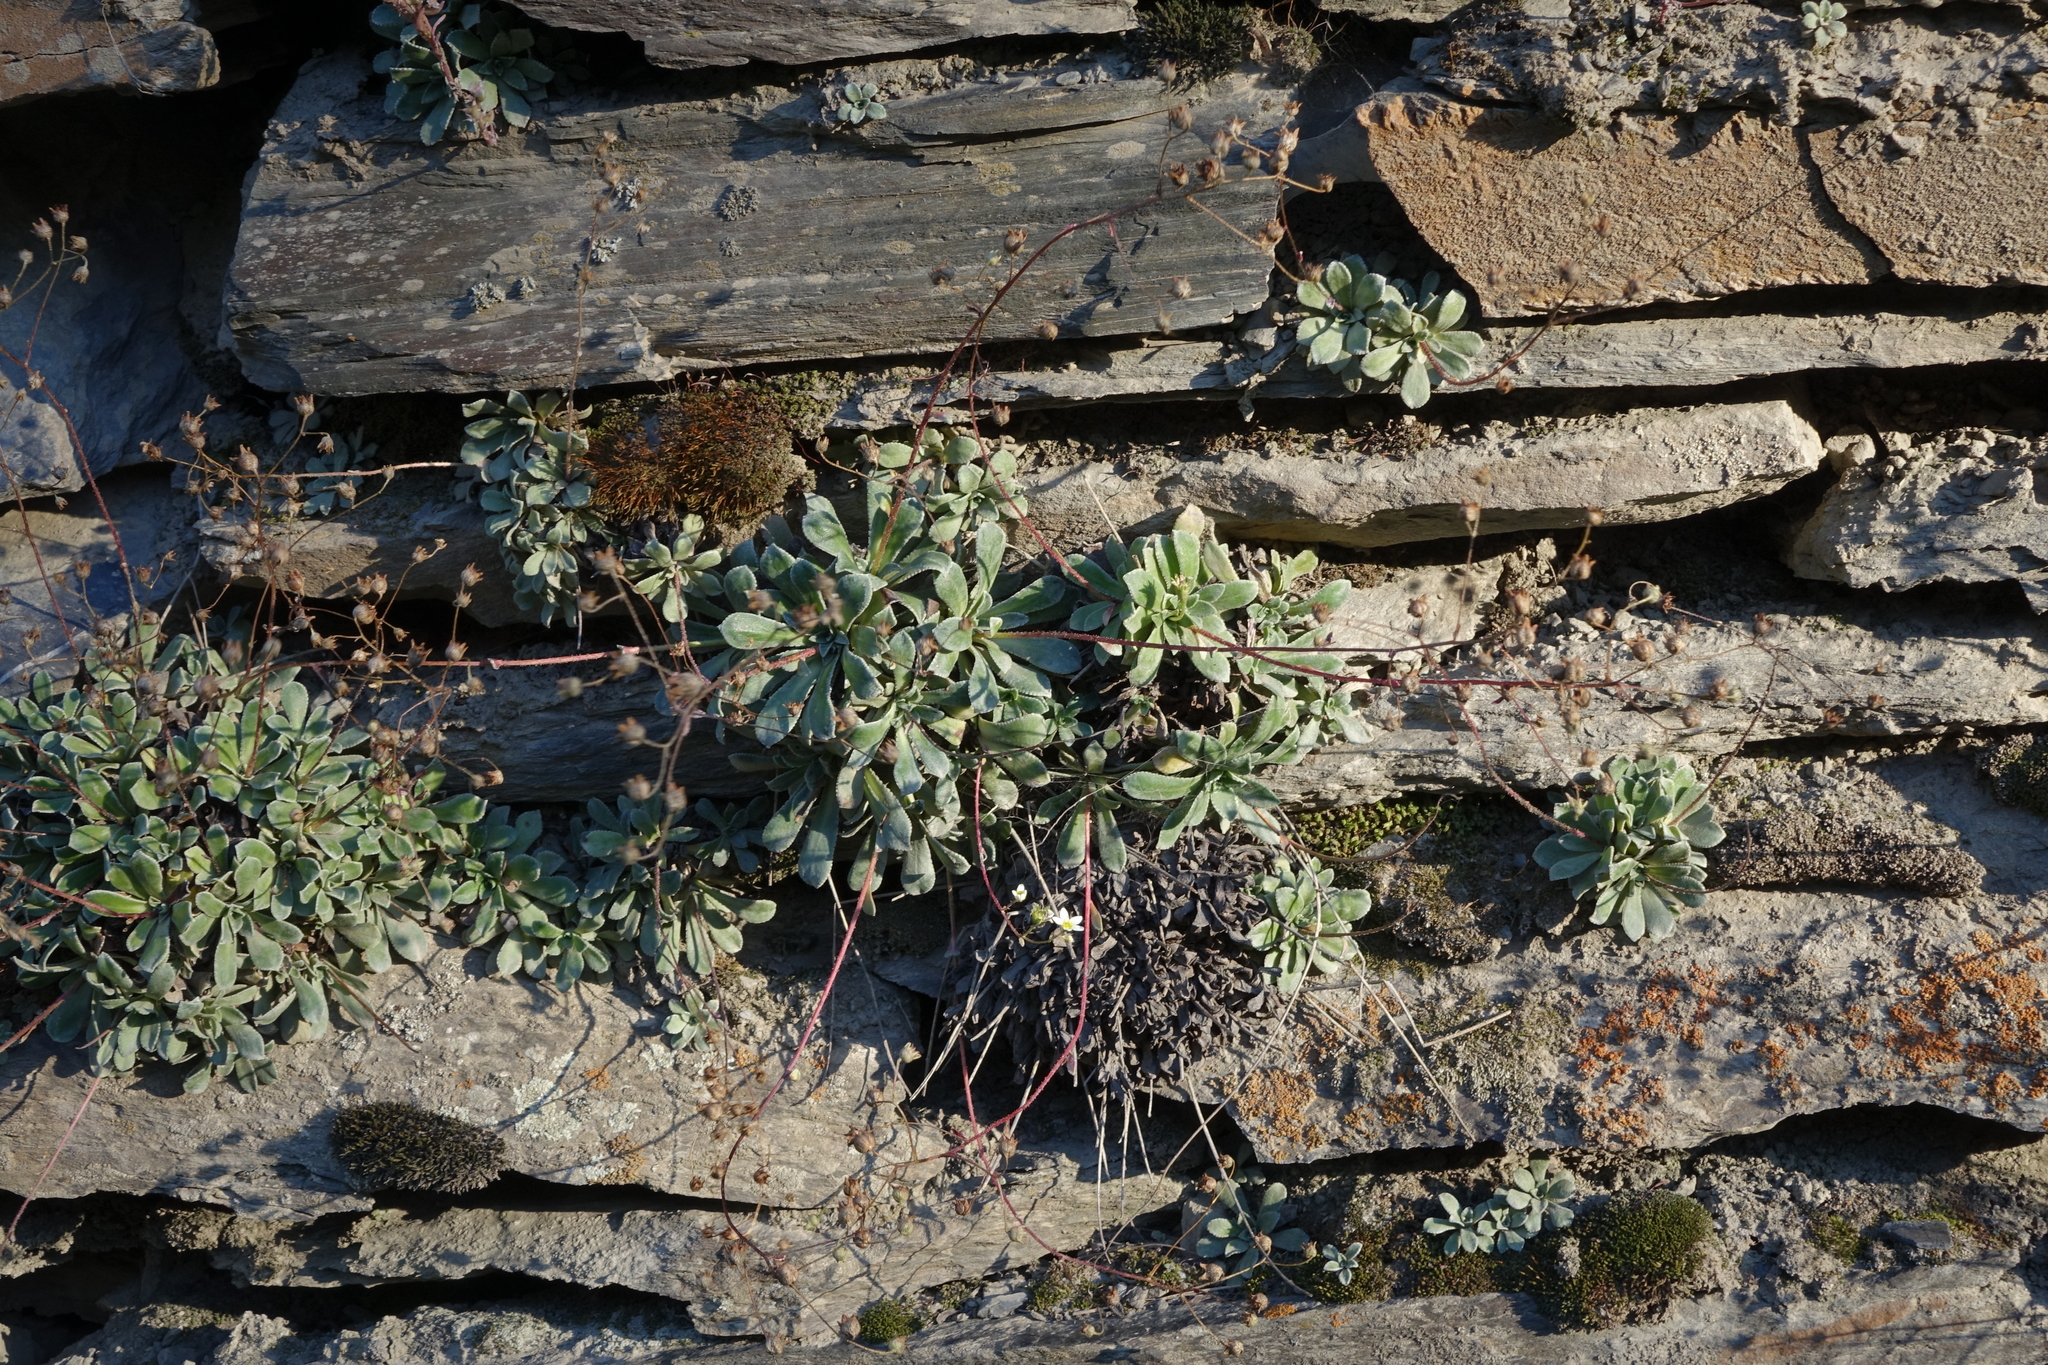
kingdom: Plantae
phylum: Tracheophyta
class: Magnoliopsida
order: Saxifragales
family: Saxifragaceae
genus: Saxifraga
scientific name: Saxifraga paniculata
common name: Livelong saxifrage
